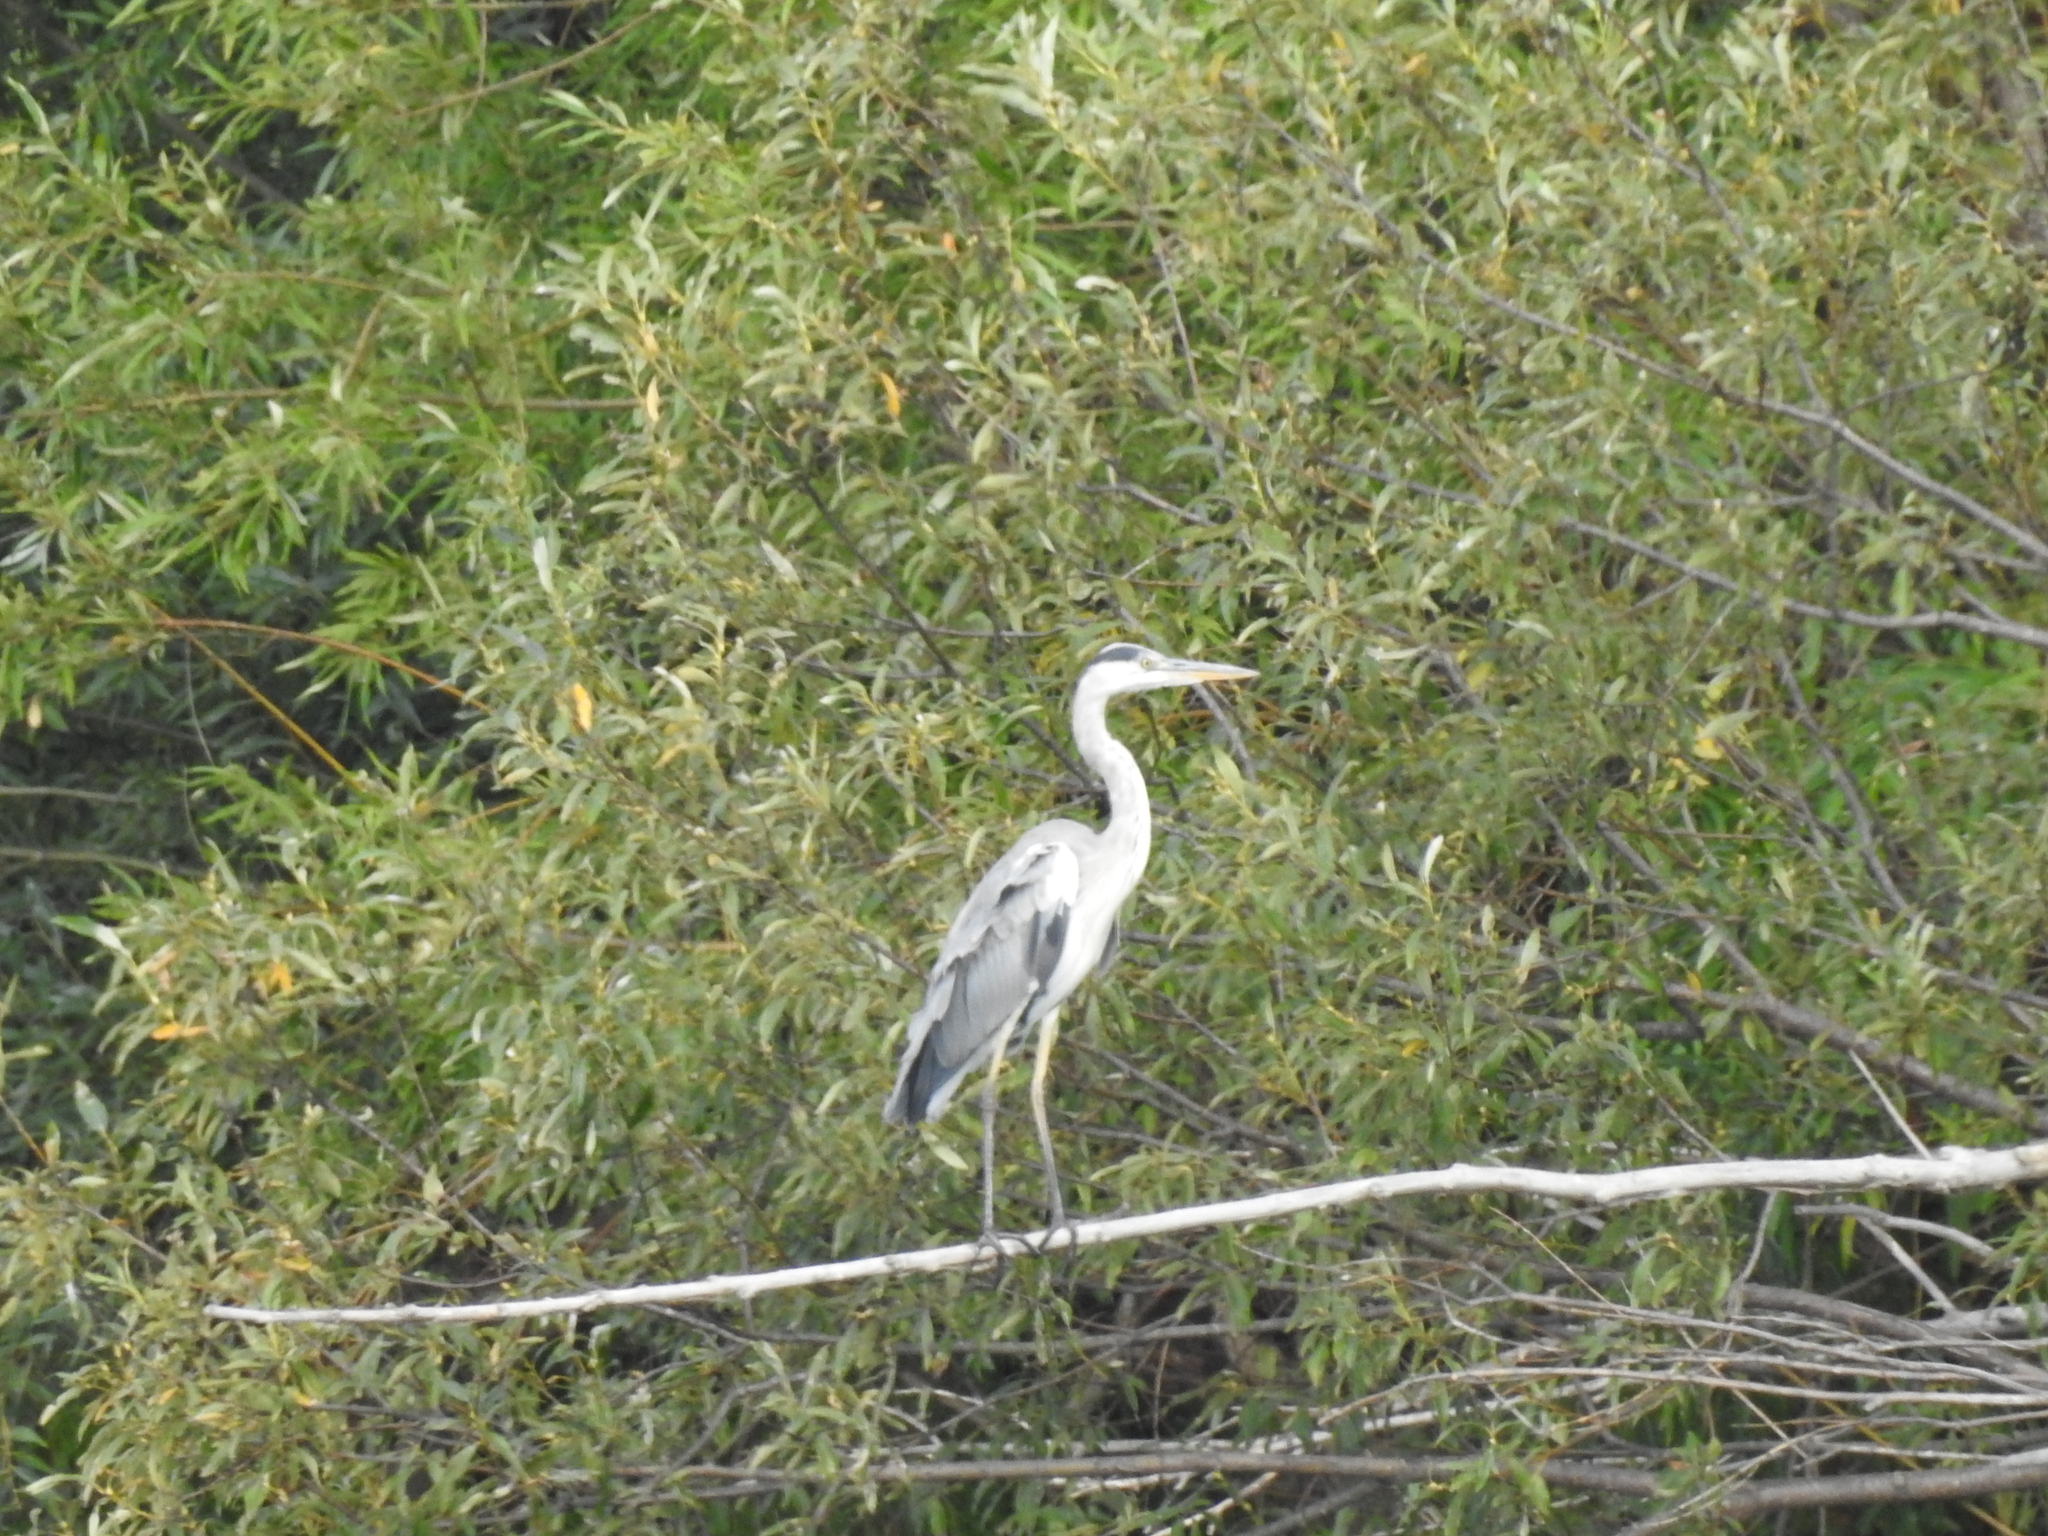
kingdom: Animalia
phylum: Chordata
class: Aves
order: Pelecaniformes
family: Ardeidae
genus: Ardea
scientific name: Ardea cinerea
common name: Grey heron
